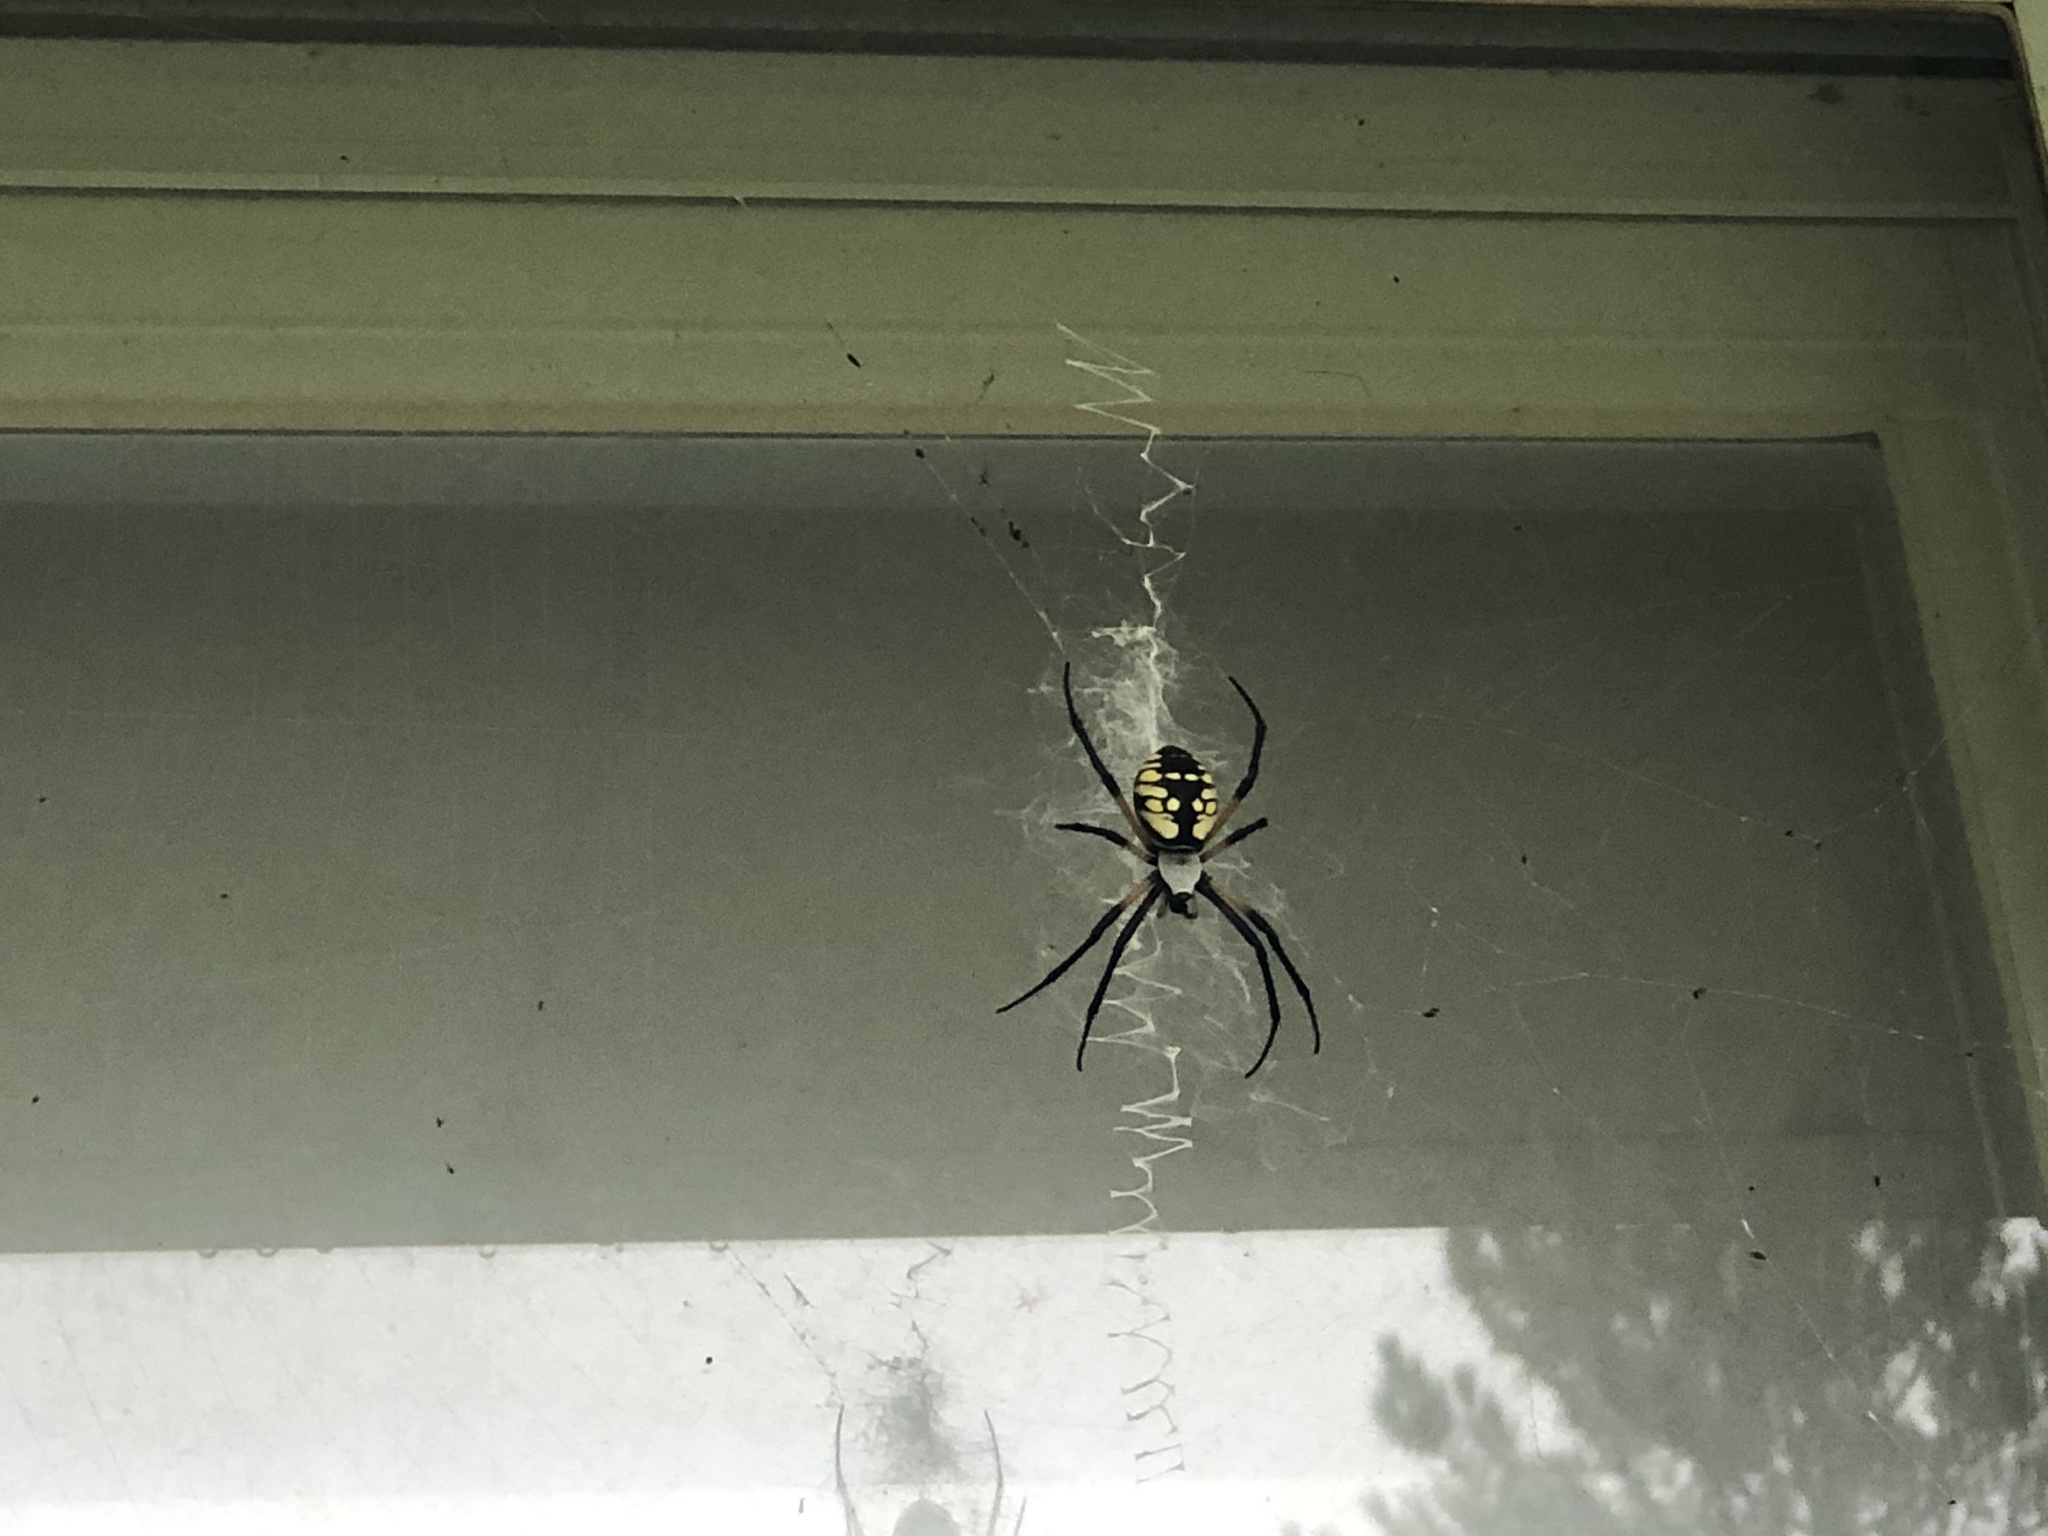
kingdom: Animalia
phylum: Arthropoda
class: Arachnida
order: Araneae
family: Araneidae
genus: Argiope
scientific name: Argiope aurantia
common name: Orb weavers
